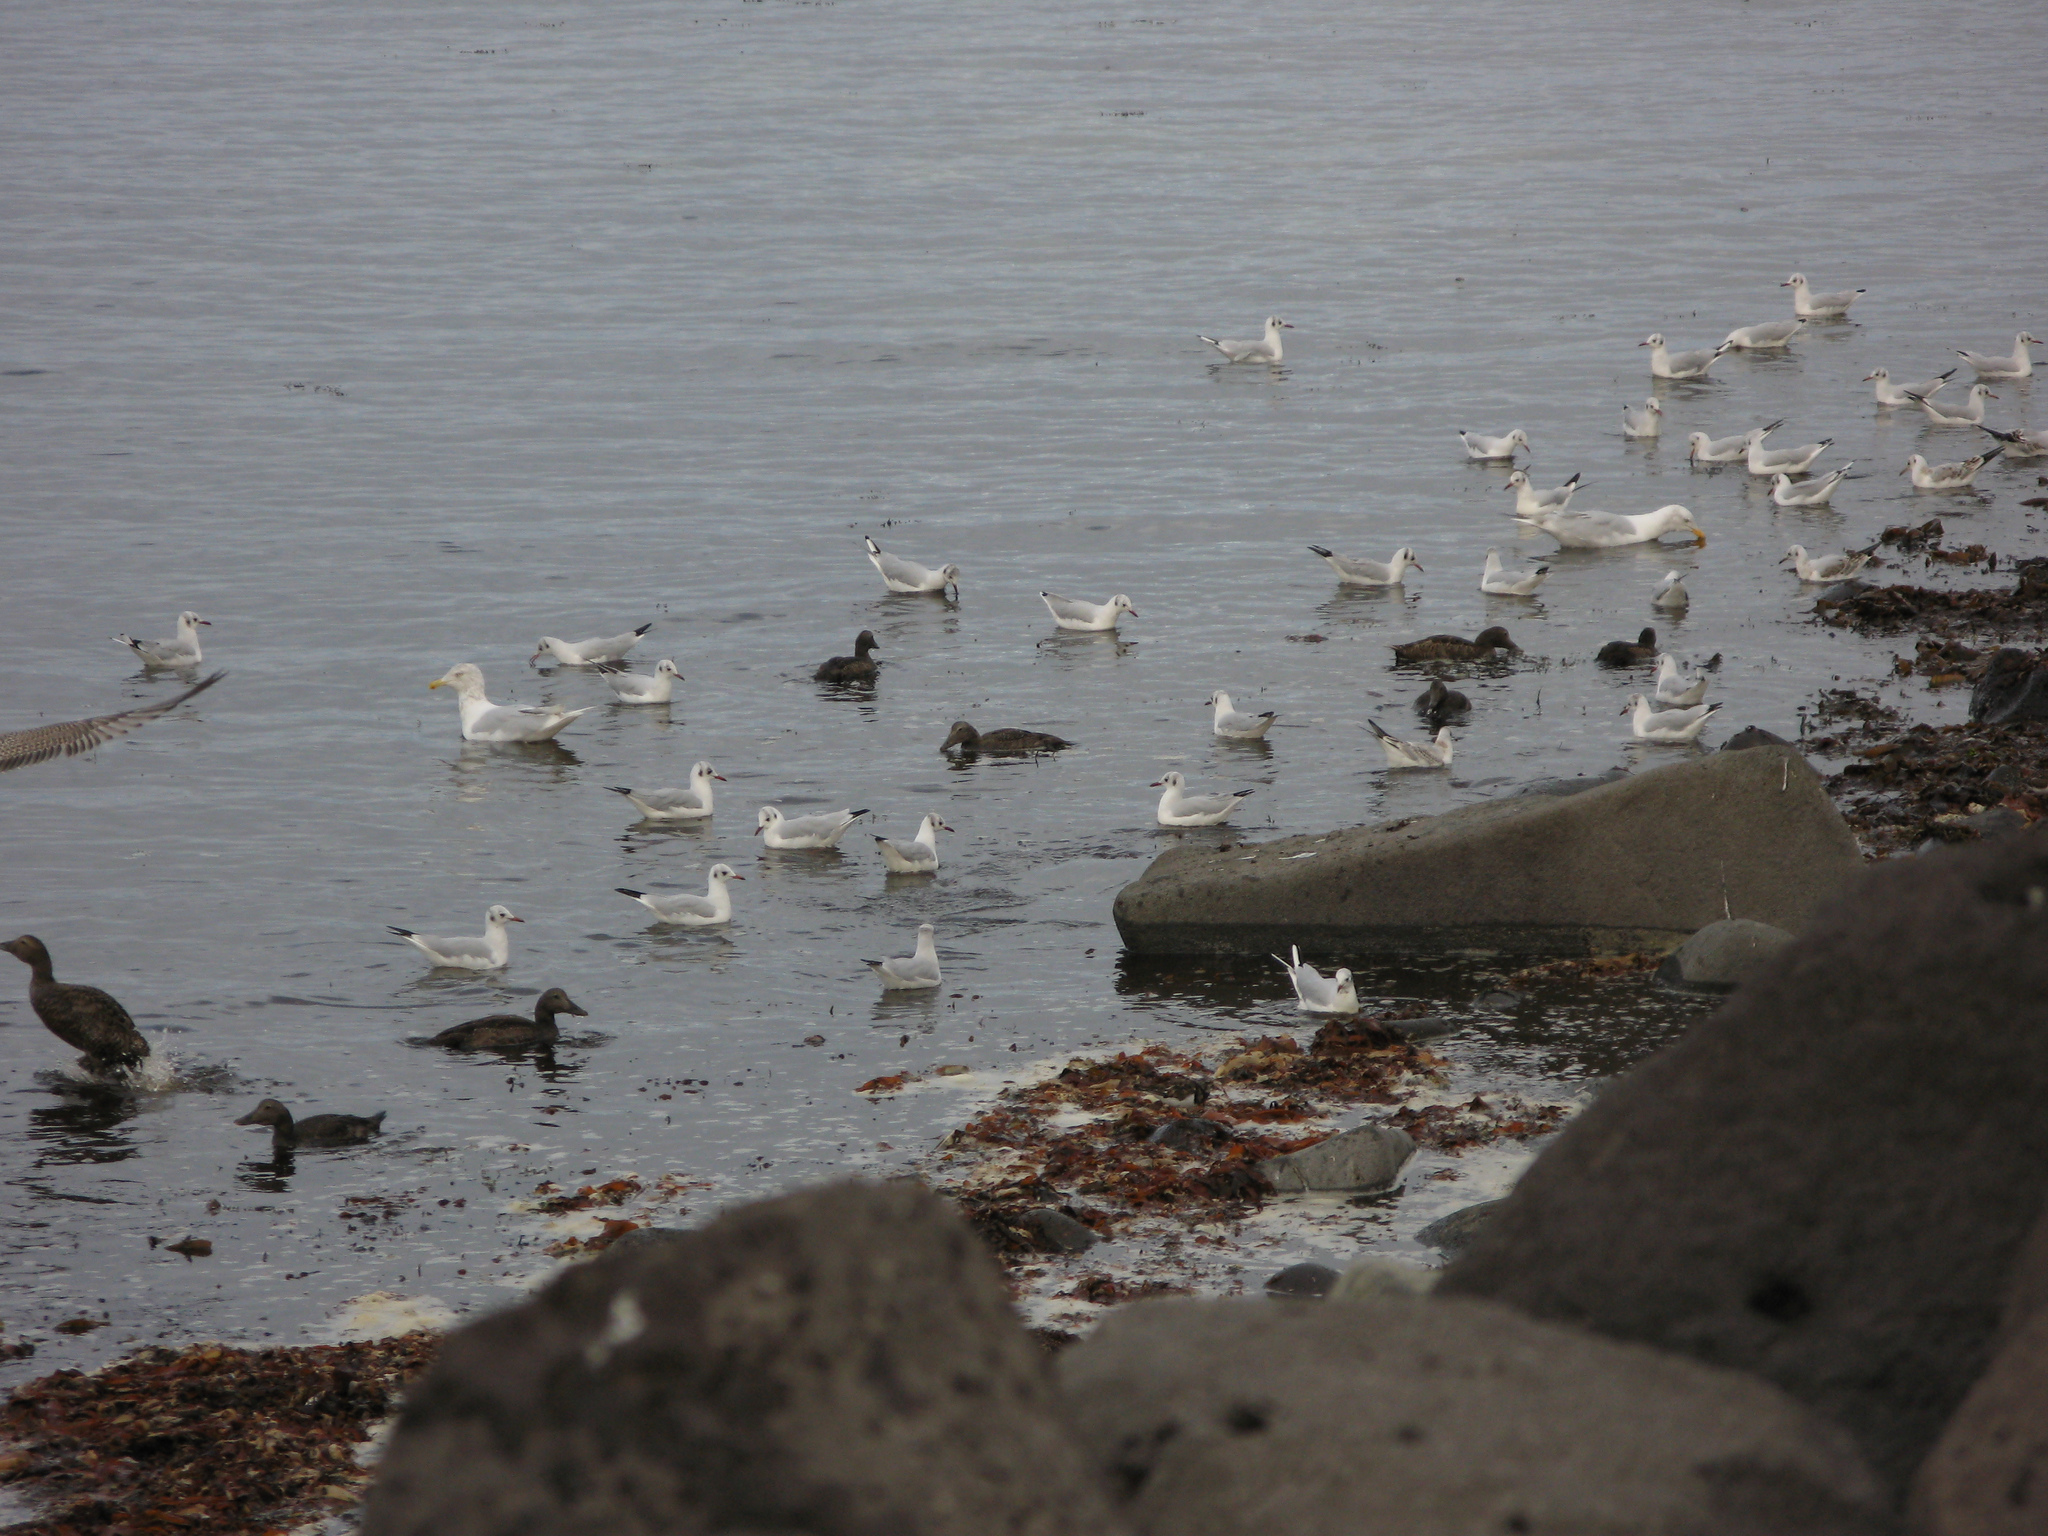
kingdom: Animalia
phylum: Chordata
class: Aves
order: Charadriiformes
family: Laridae
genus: Chroicocephalus
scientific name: Chroicocephalus ridibundus
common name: Black-headed gull
